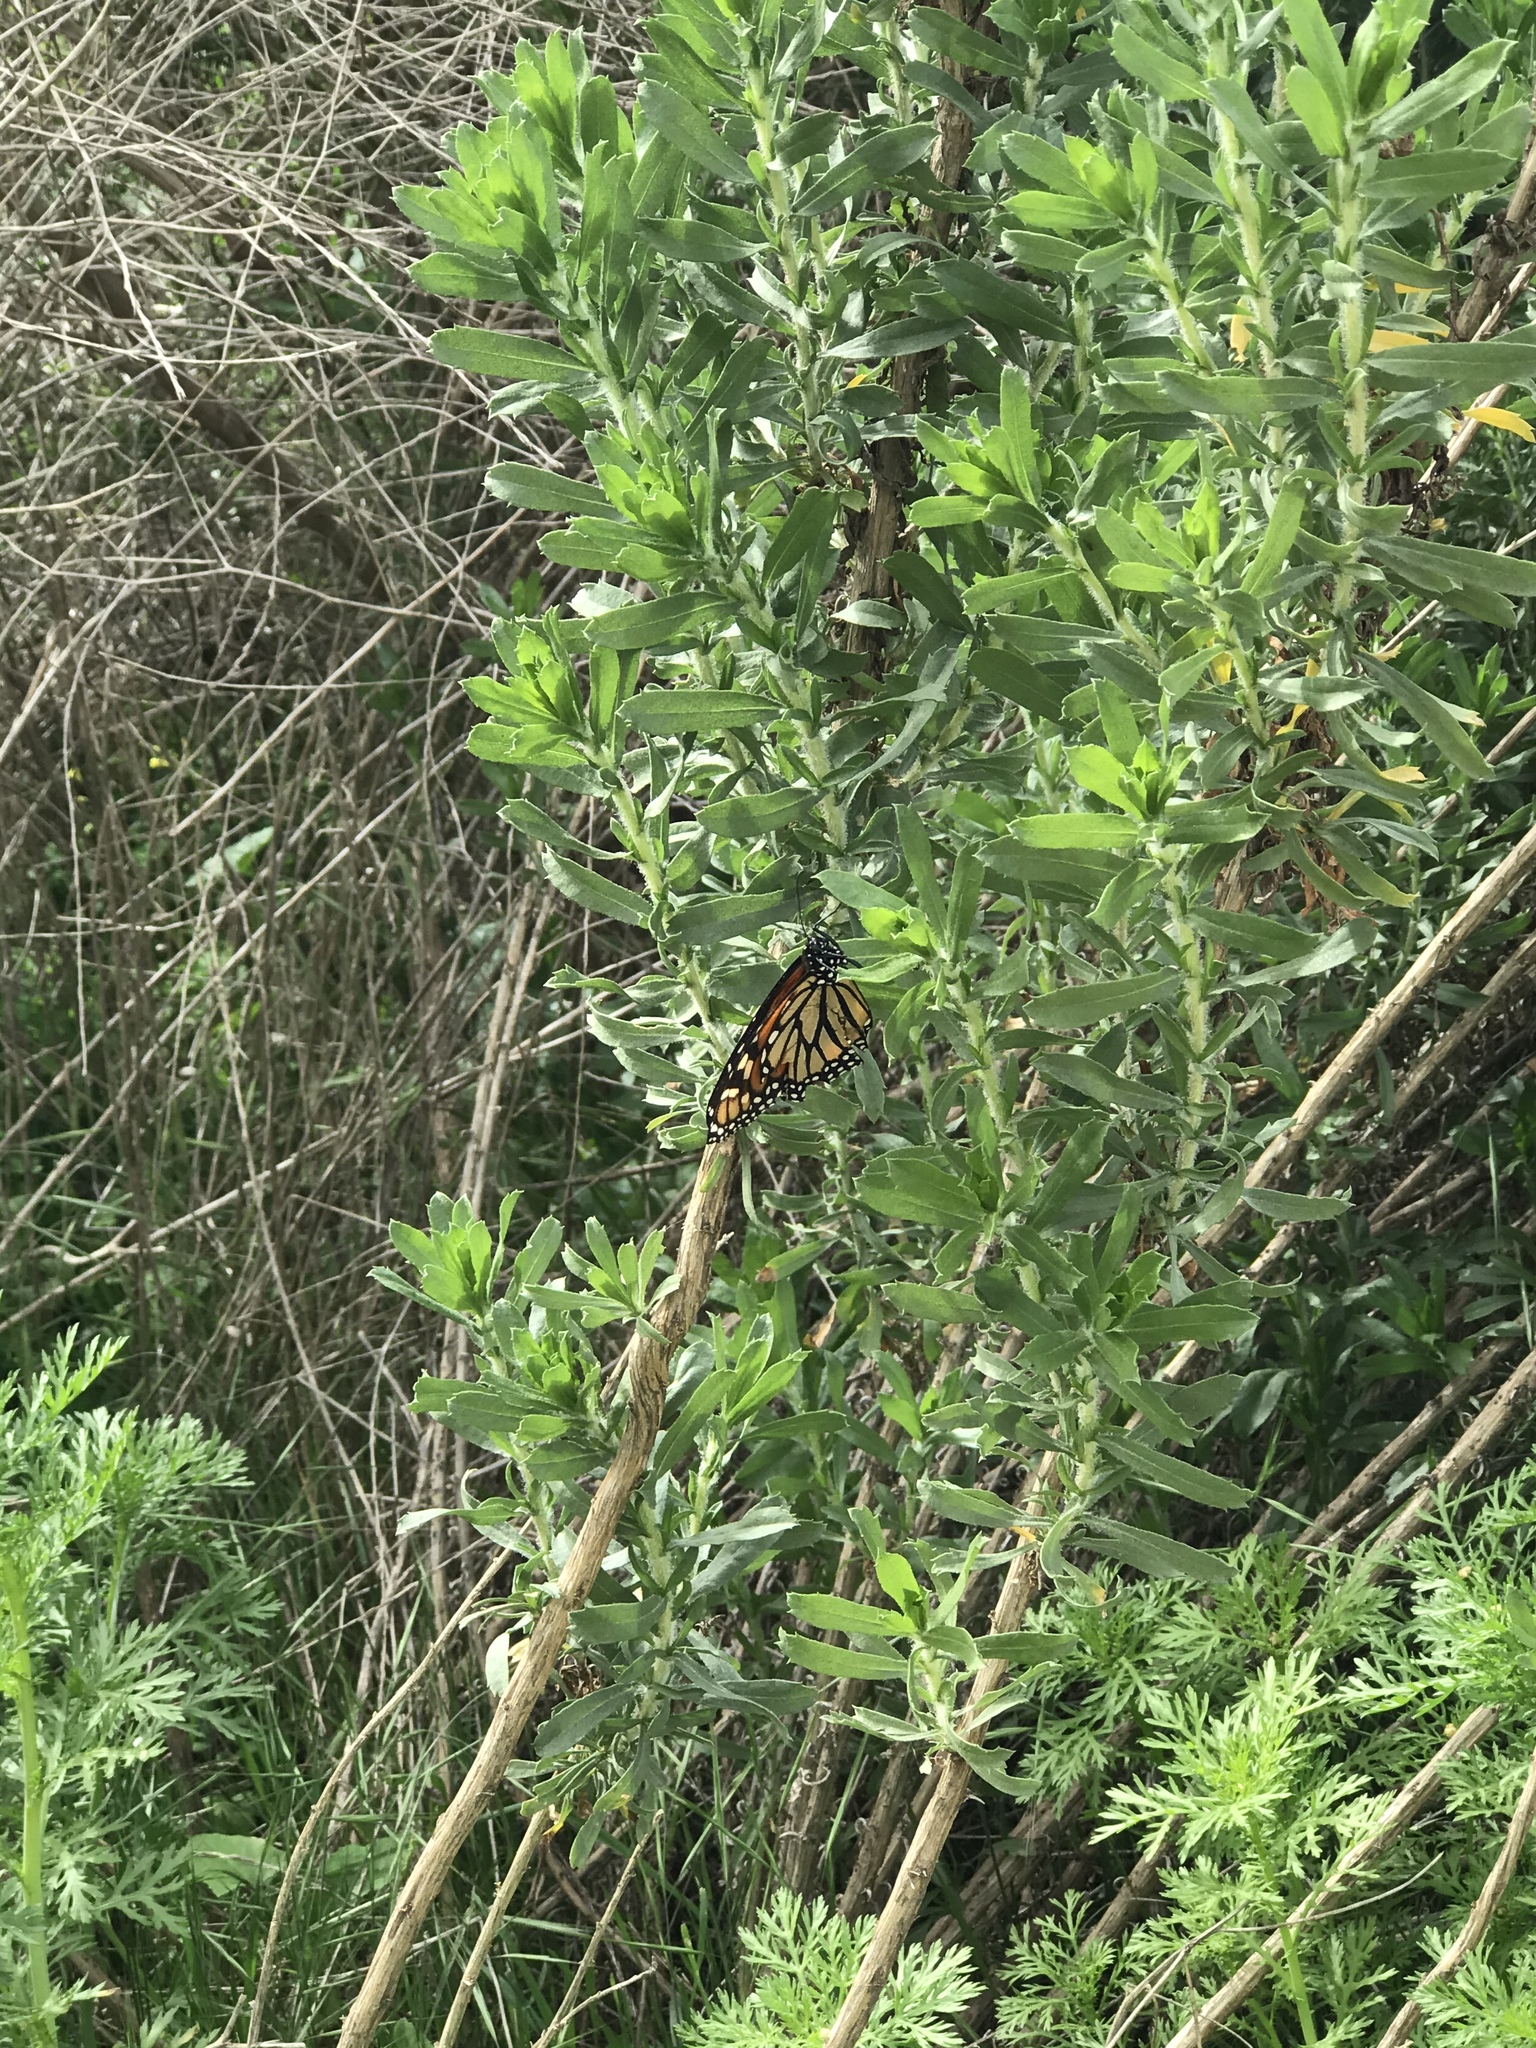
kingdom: Animalia
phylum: Arthropoda
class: Insecta
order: Lepidoptera
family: Nymphalidae
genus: Danaus
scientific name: Danaus plexippus
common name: Monarch
